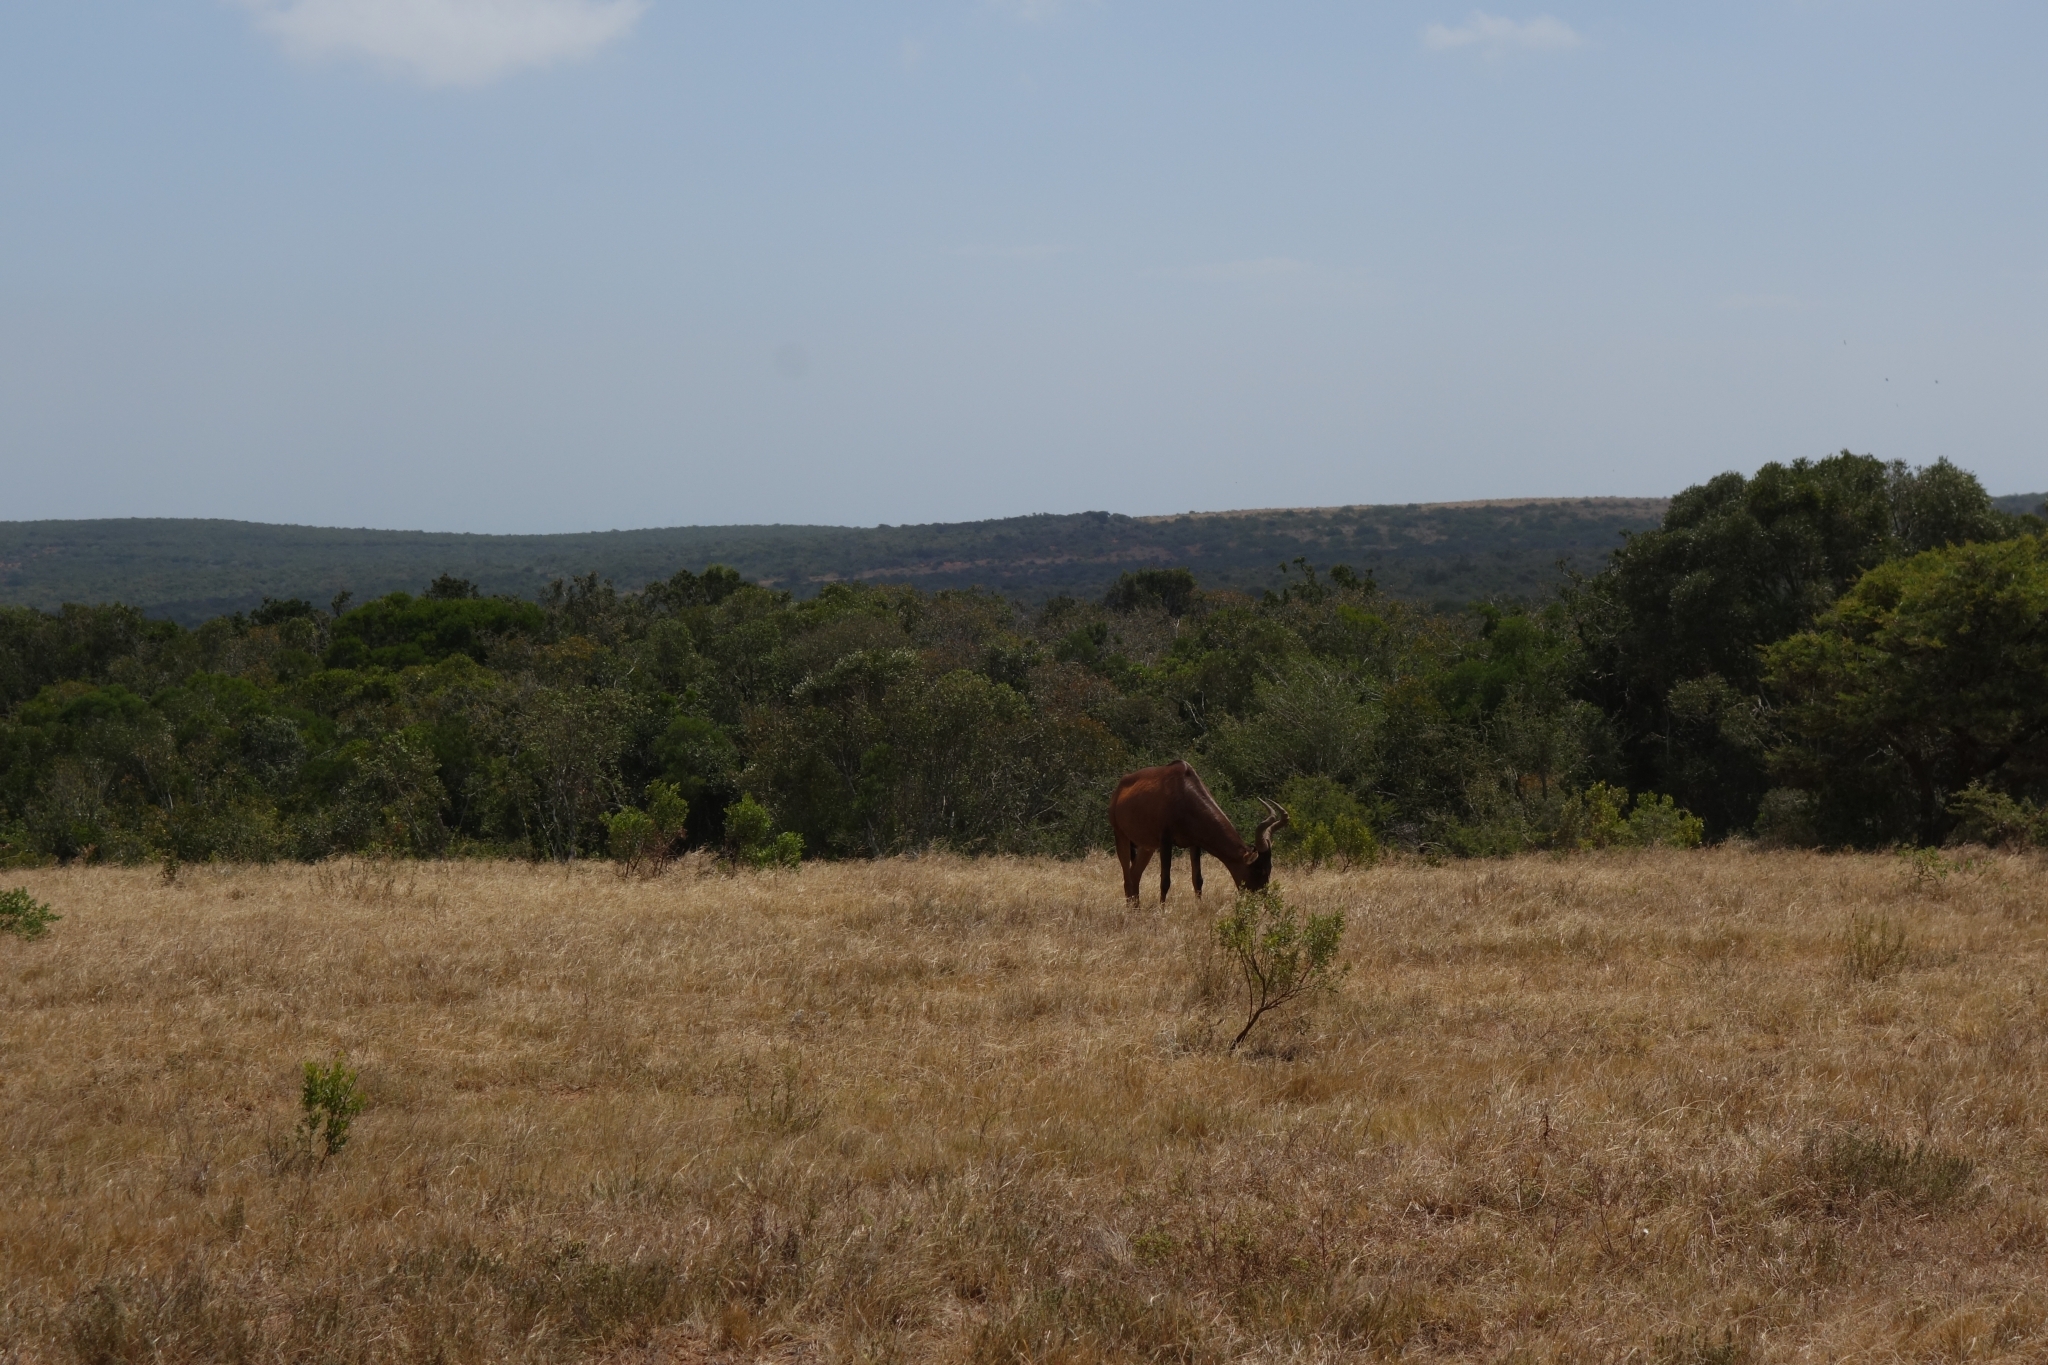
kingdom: Animalia
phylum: Chordata
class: Mammalia
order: Artiodactyla
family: Bovidae
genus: Alcelaphus
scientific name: Alcelaphus buselaphus
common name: Hartebeest
